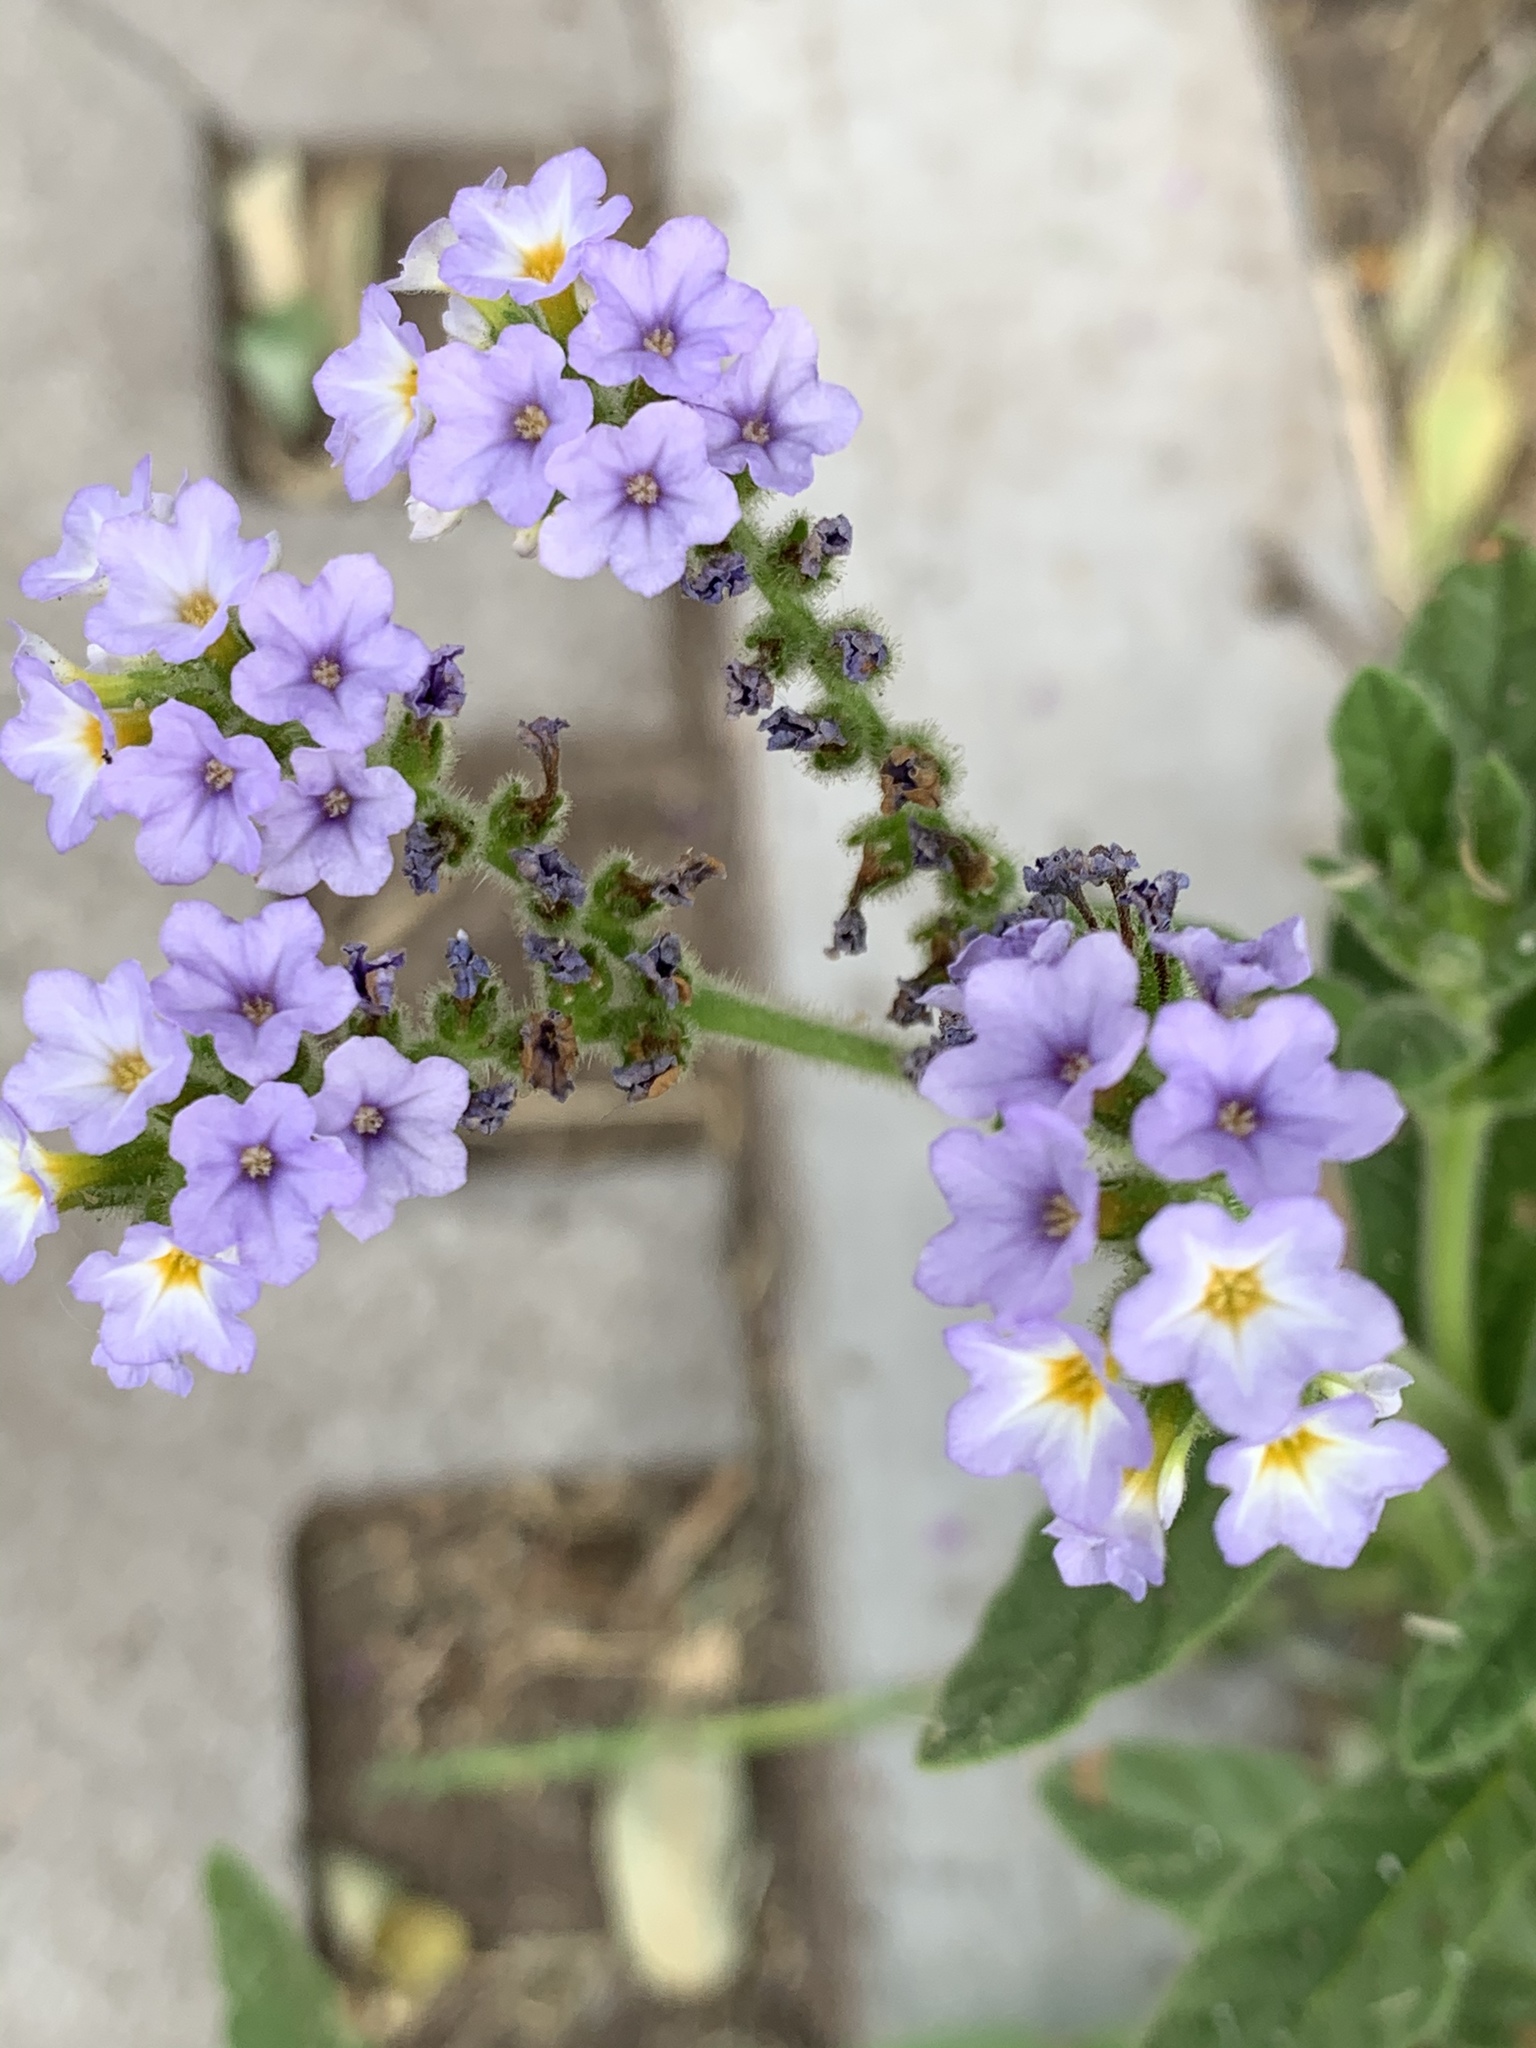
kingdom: Plantae
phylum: Tracheophyta
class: Magnoliopsida
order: Boraginales
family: Heliotropiaceae
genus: Heliotropium
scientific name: Heliotropium amplexicaule
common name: Clasping heliotrope
